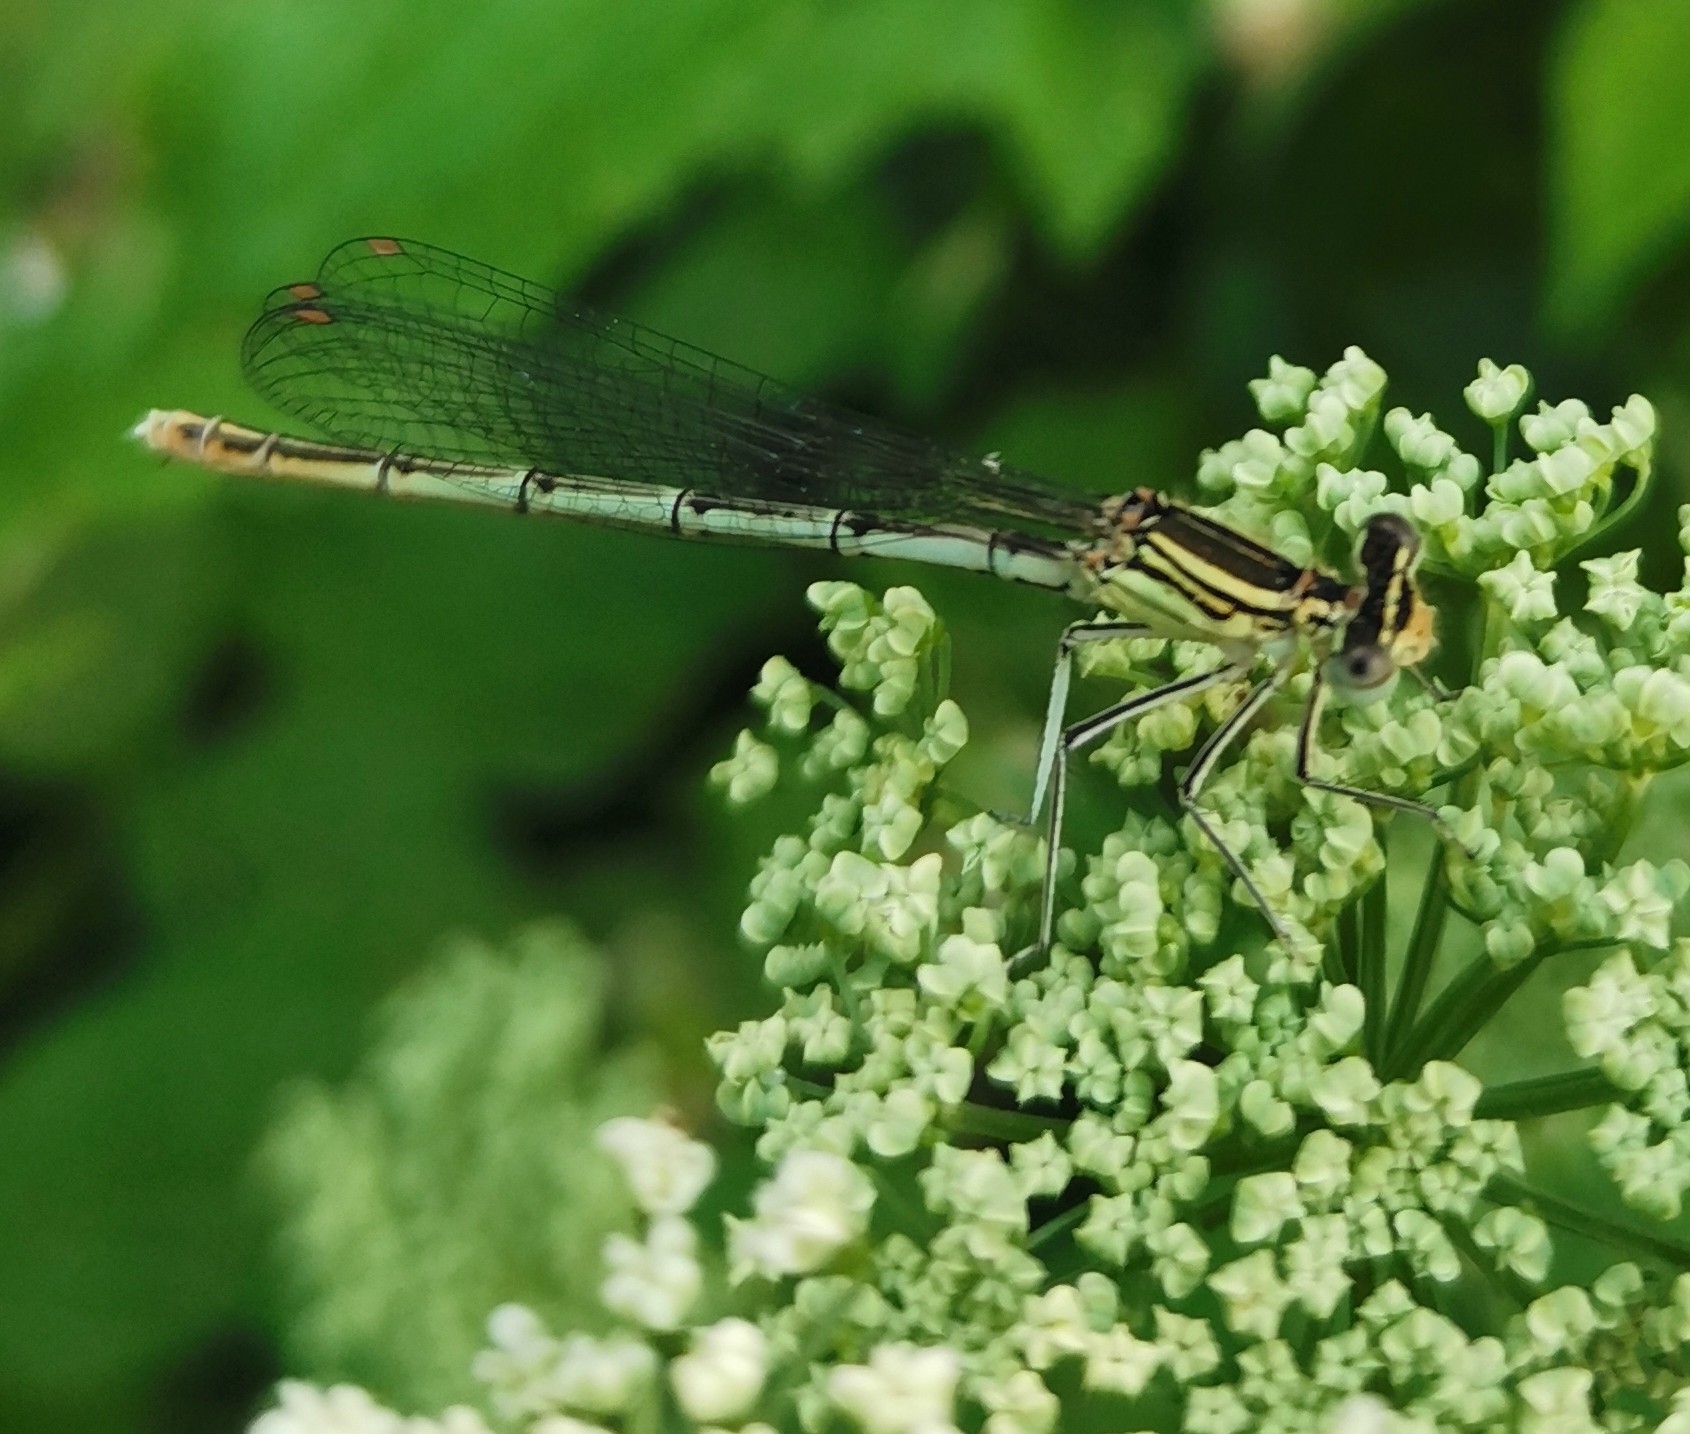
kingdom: Animalia
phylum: Arthropoda
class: Insecta
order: Odonata
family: Platycnemididae
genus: Platycnemis
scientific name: Platycnemis pennipes
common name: White-legged damselfly
